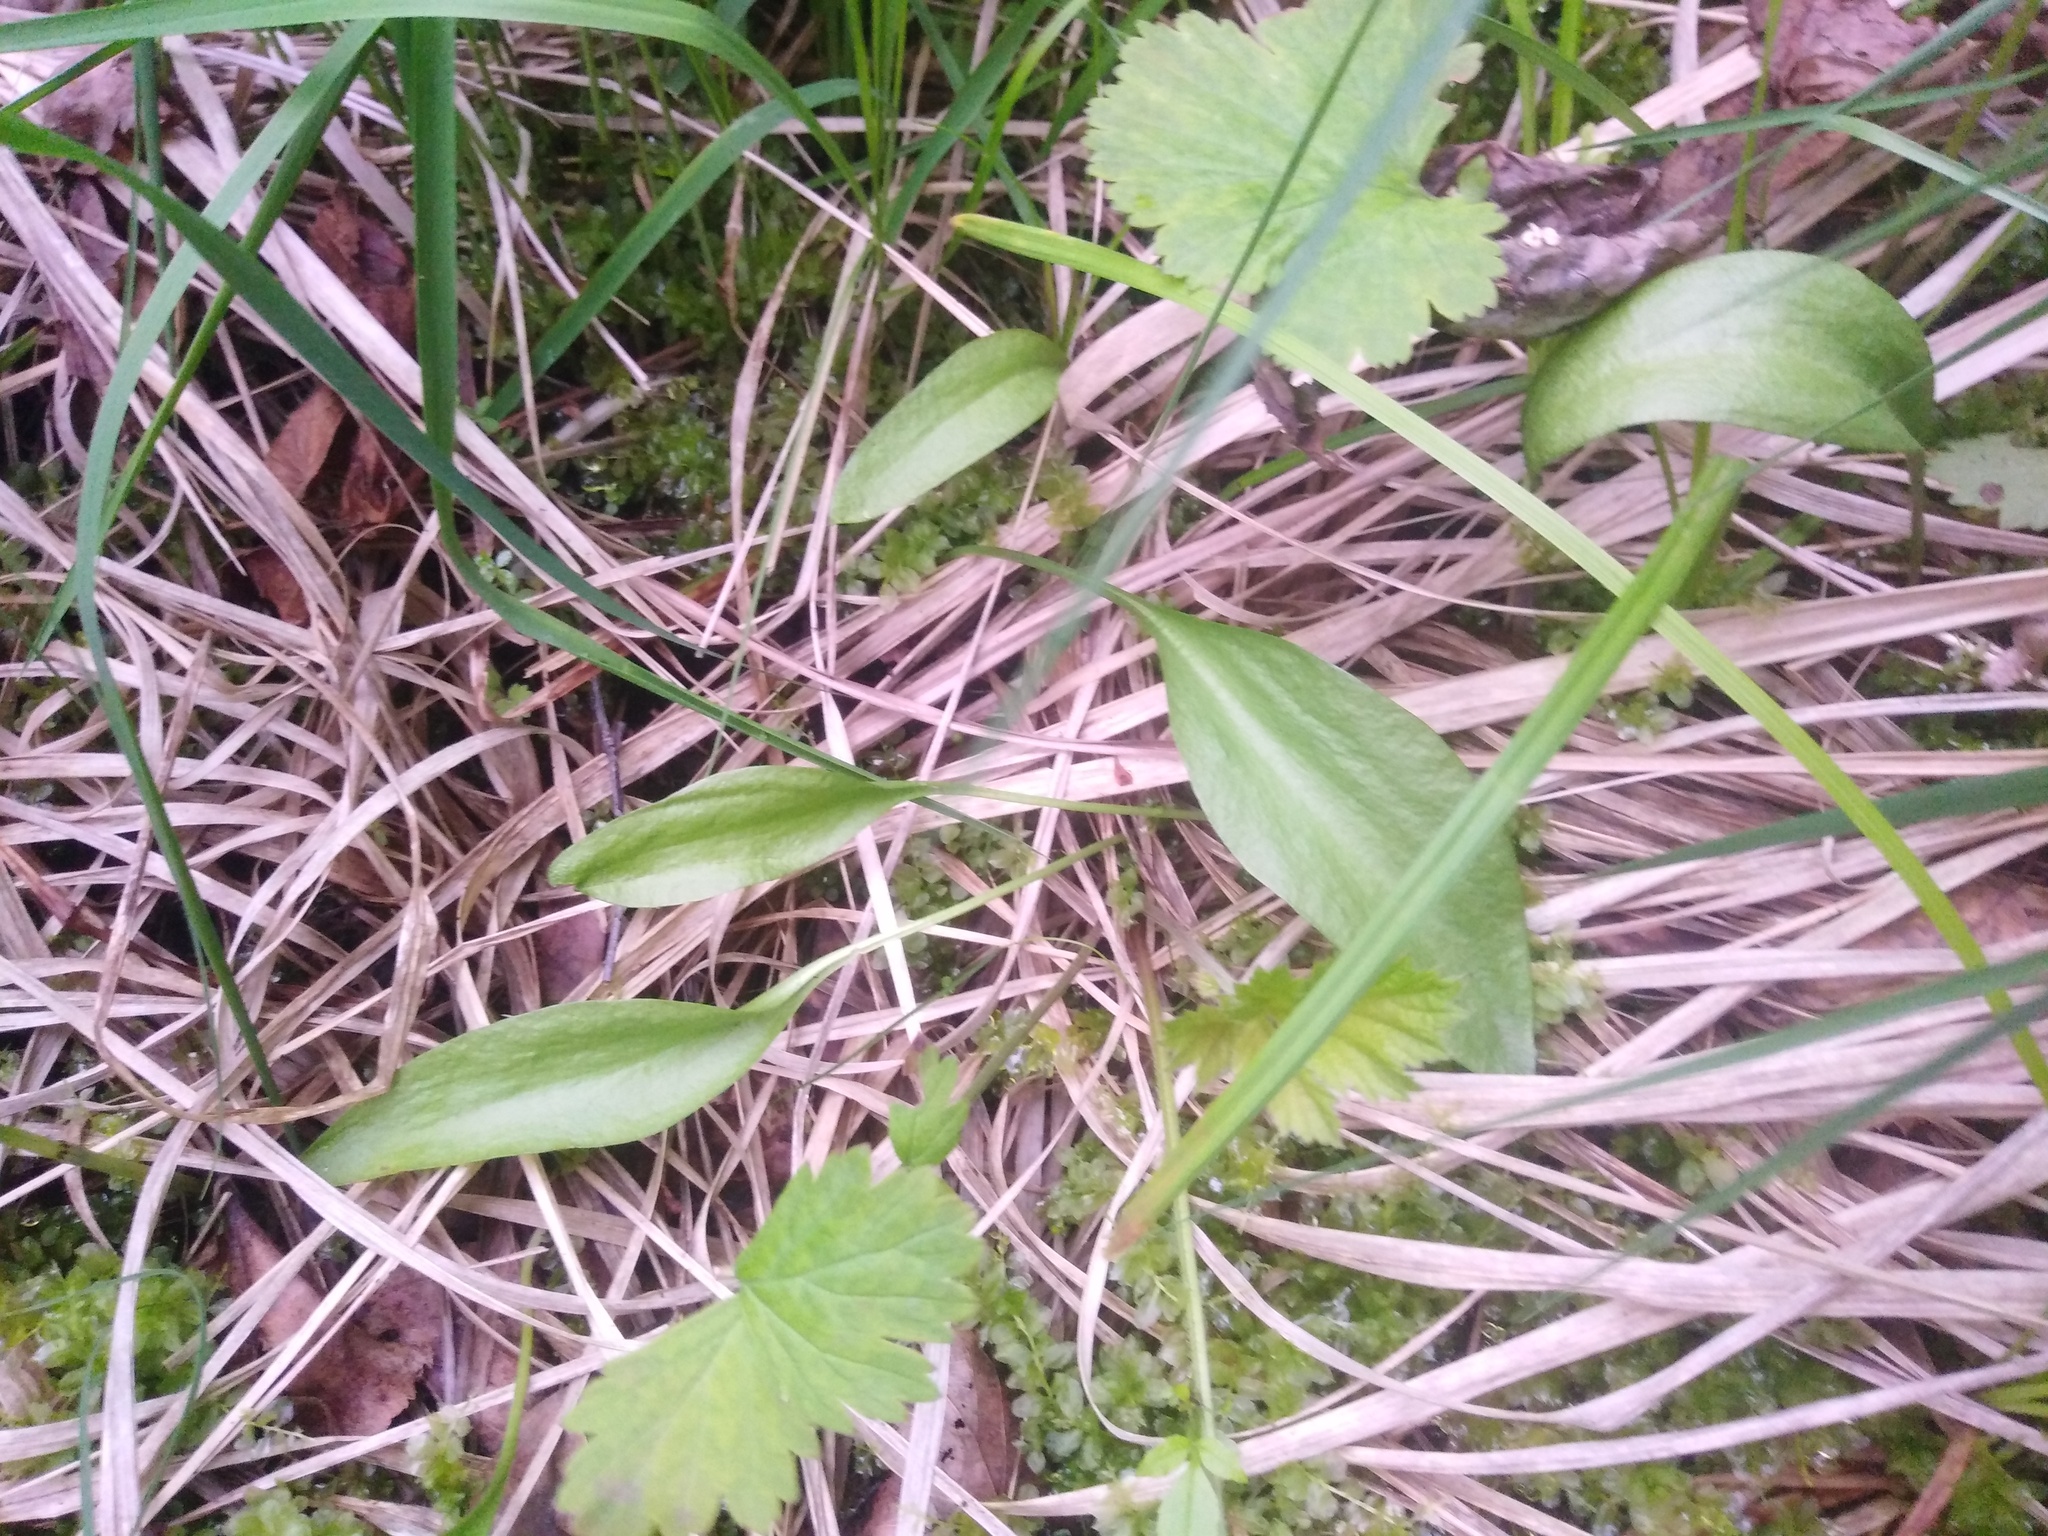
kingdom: Plantae
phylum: Tracheophyta
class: Polypodiopsida
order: Ophioglossales
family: Ophioglossaceae
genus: Ophioglossum
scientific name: Ophioglossum vulgatum
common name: Adder's-tongue
